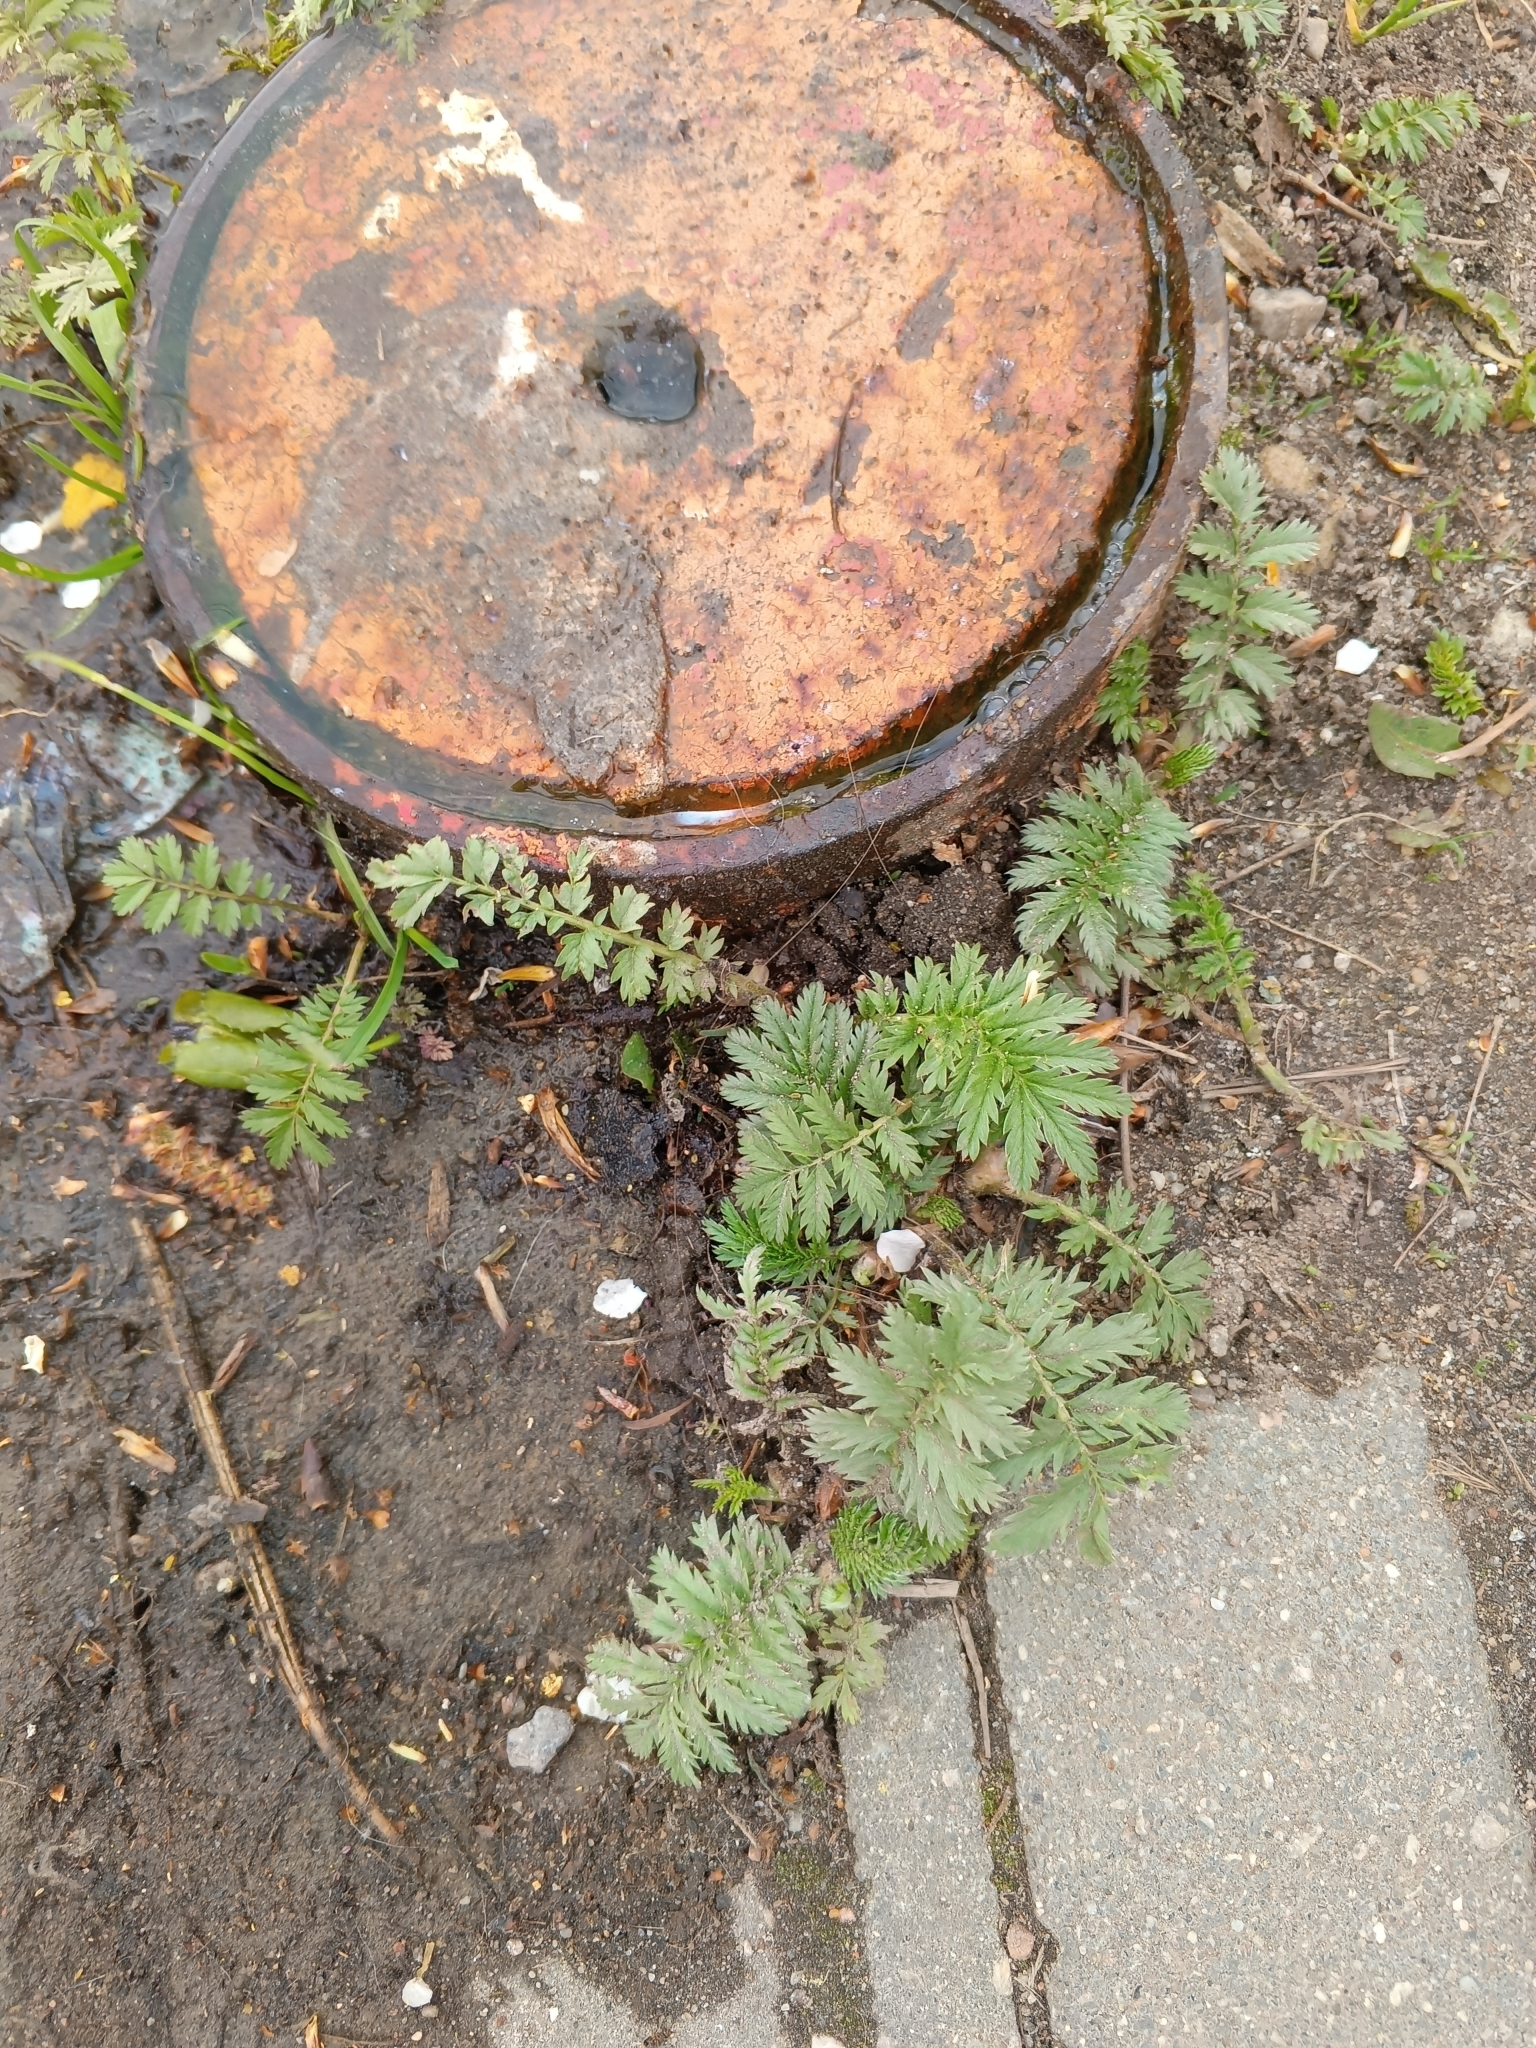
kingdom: Plantae
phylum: Tracheophyta
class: Magnoliopsida
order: Rosales
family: Rosaceae
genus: Argentina
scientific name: Argentina anserina
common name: Common silverweed
